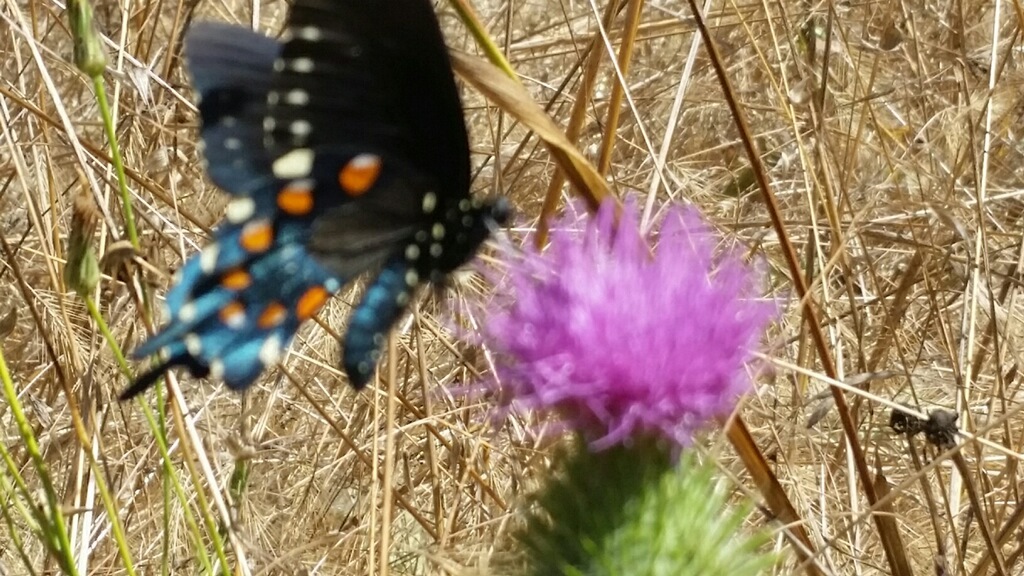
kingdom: Animalia
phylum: Arthropoda
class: Insecta
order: Lepidoptera
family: Papilionidae
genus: Battus
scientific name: Battus philenor
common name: Pipevine swallowtail
